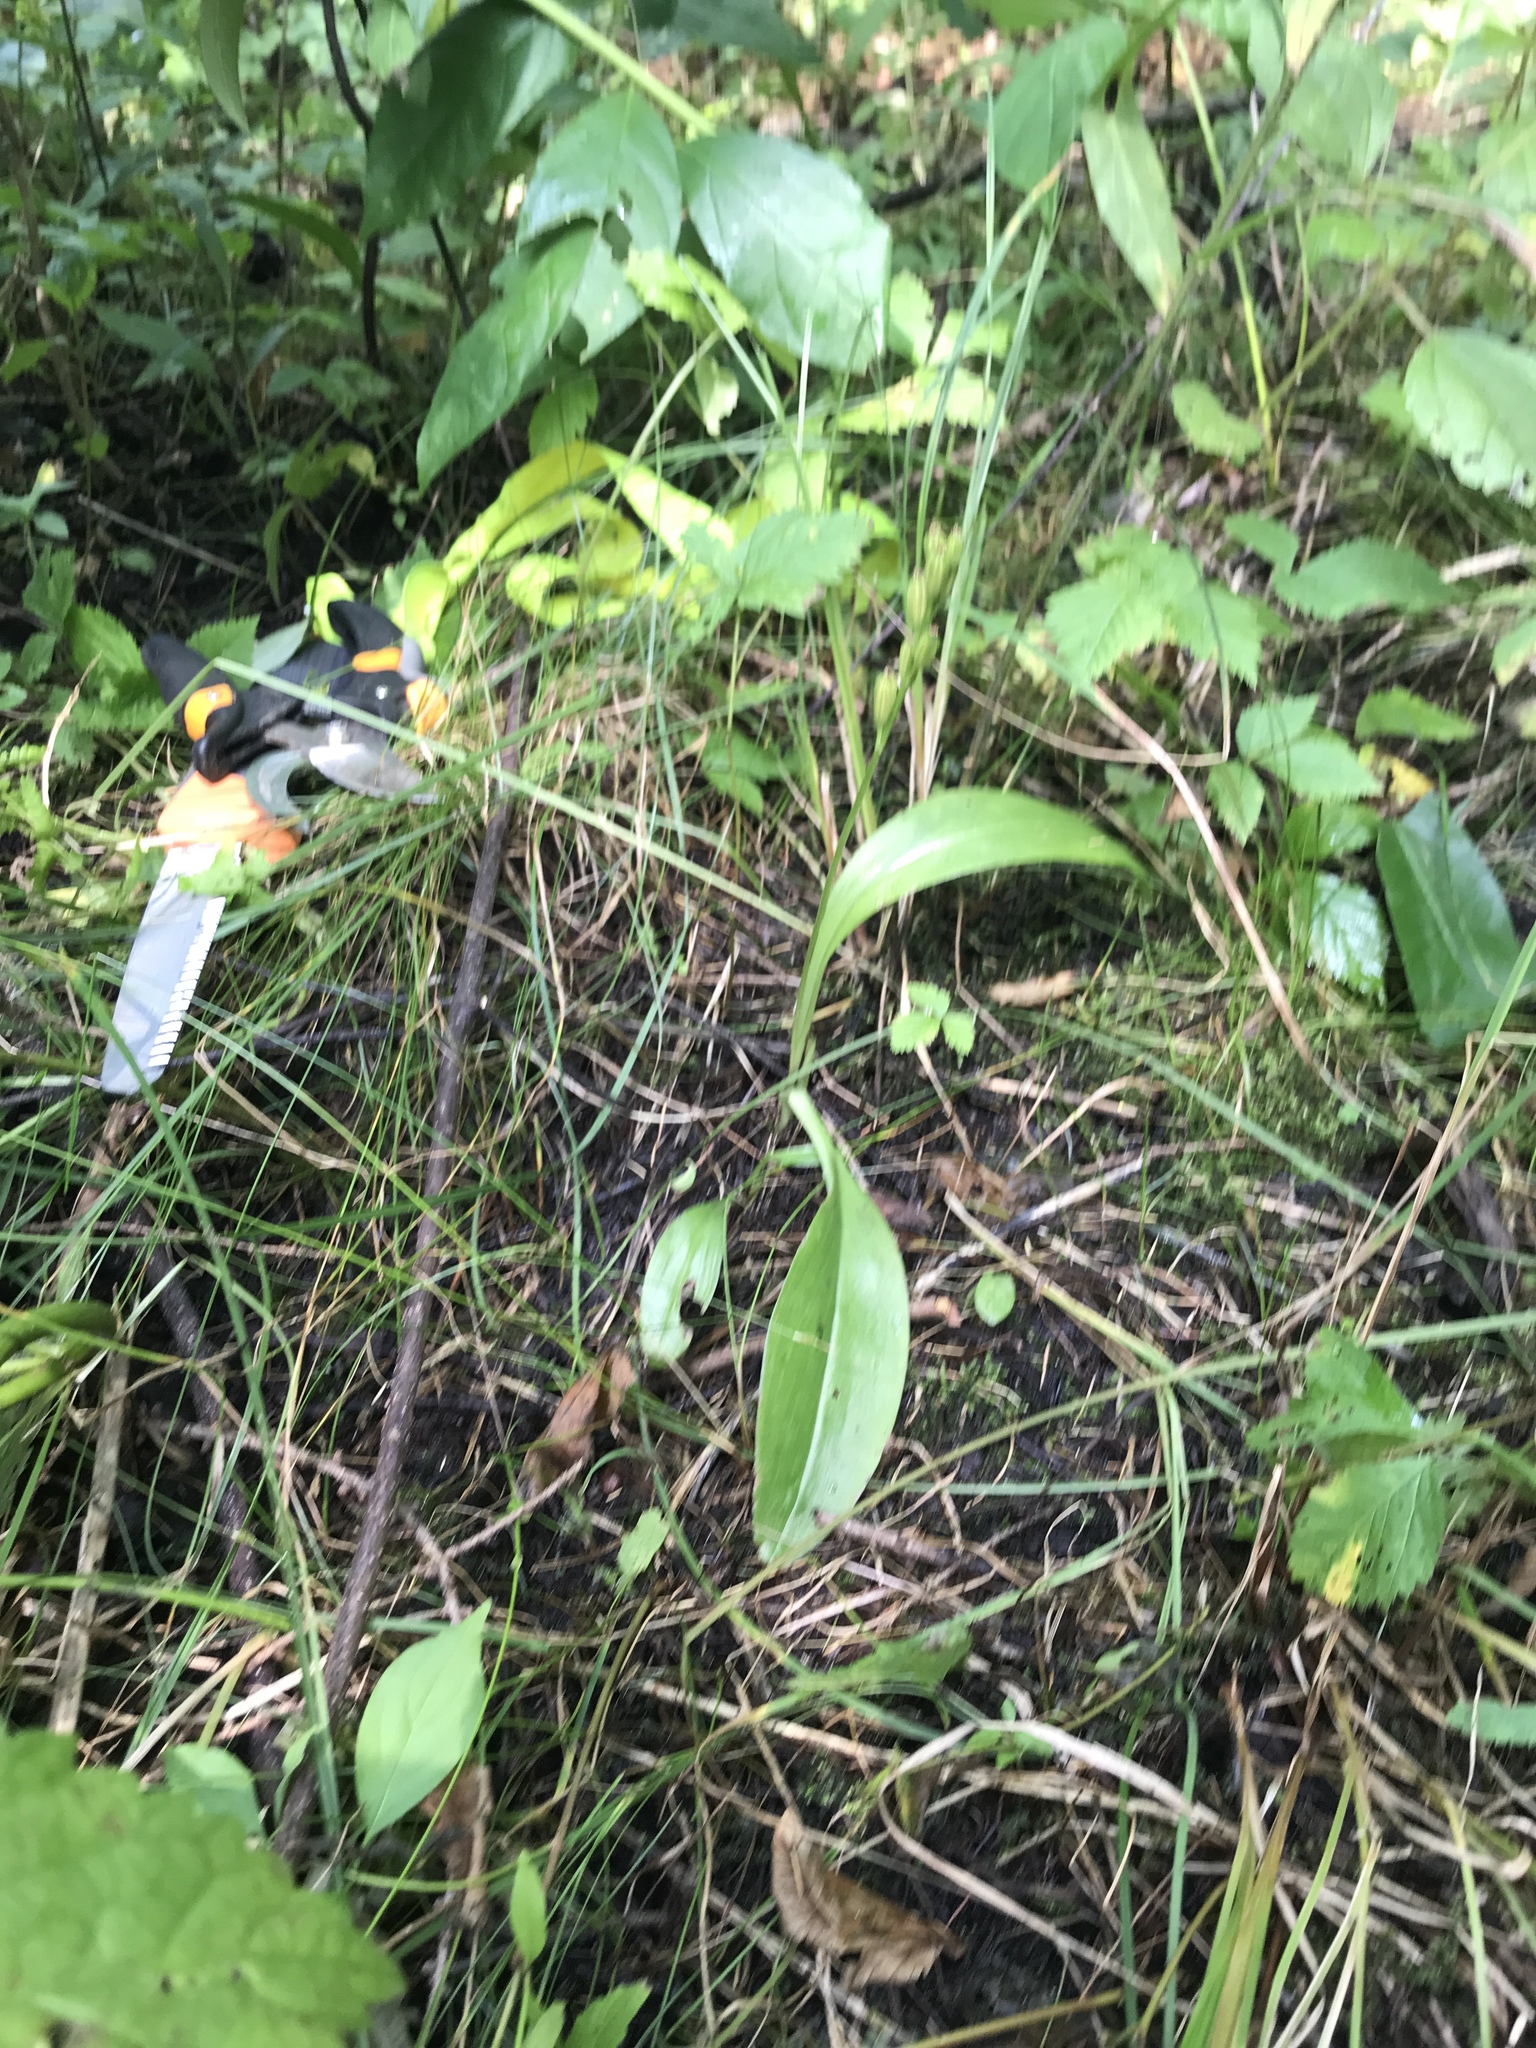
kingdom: Animalia
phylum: Arthropoda
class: Insecta
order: Coleoptera
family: Curculionidae
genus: Liparis
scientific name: Liparis loeselii
